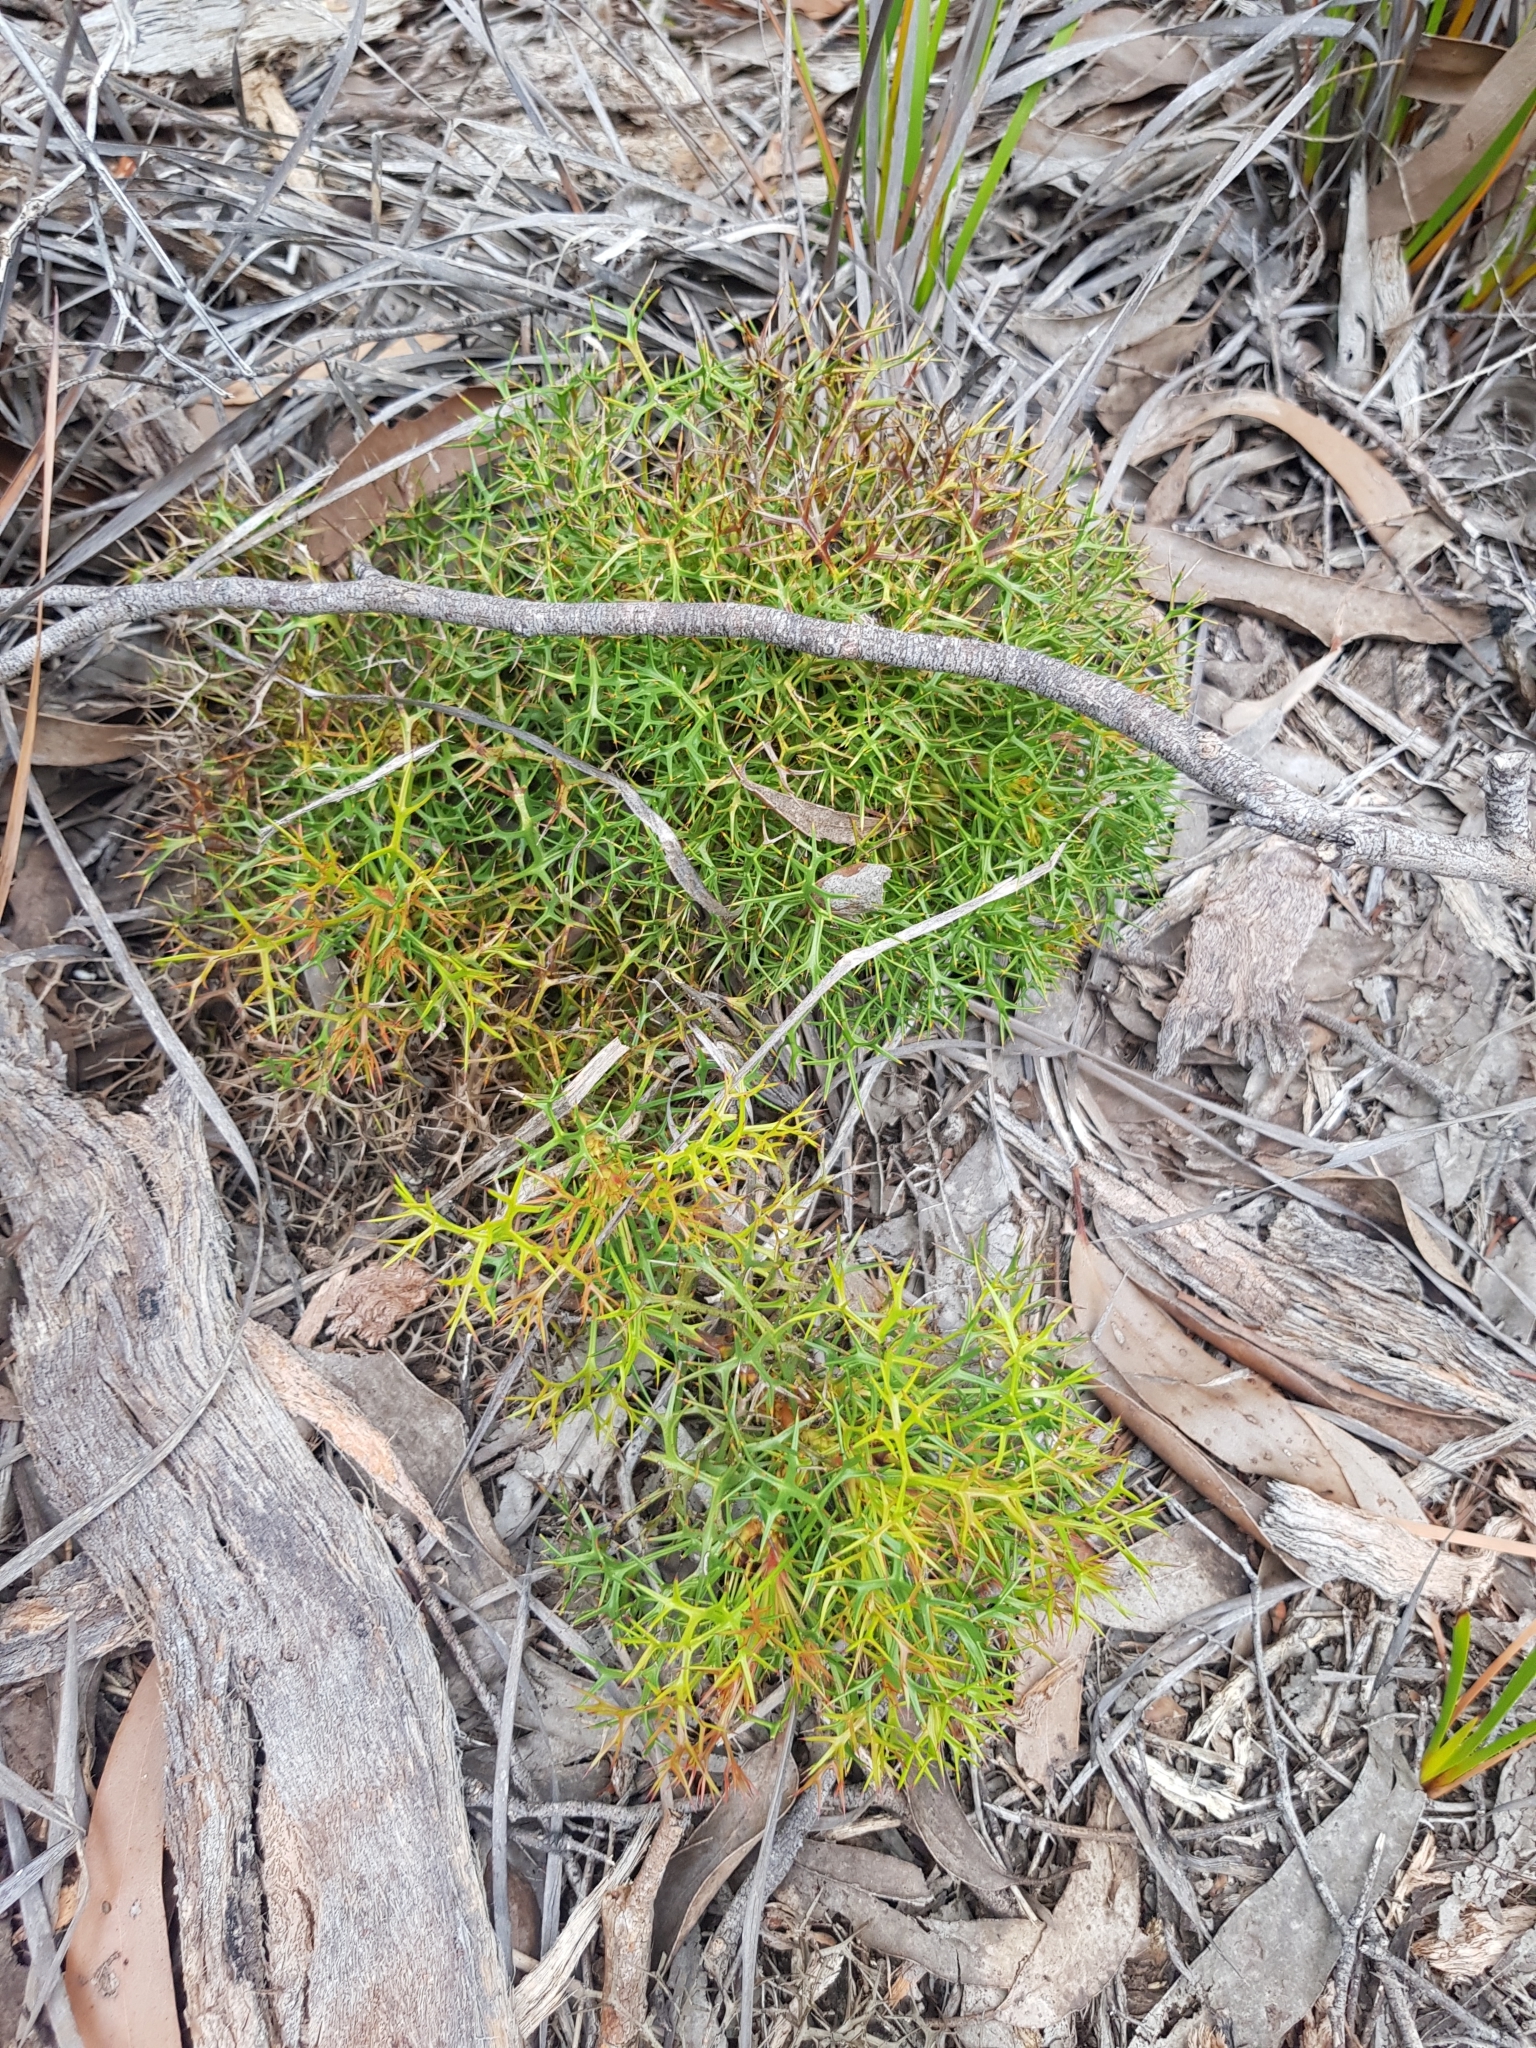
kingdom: Plantae
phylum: Tracheophyta
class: Magnoliopsida
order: Proteales
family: Proteaceae
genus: Isopogon
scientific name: Isopogon ceratophyllus
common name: Horny cone-bush
